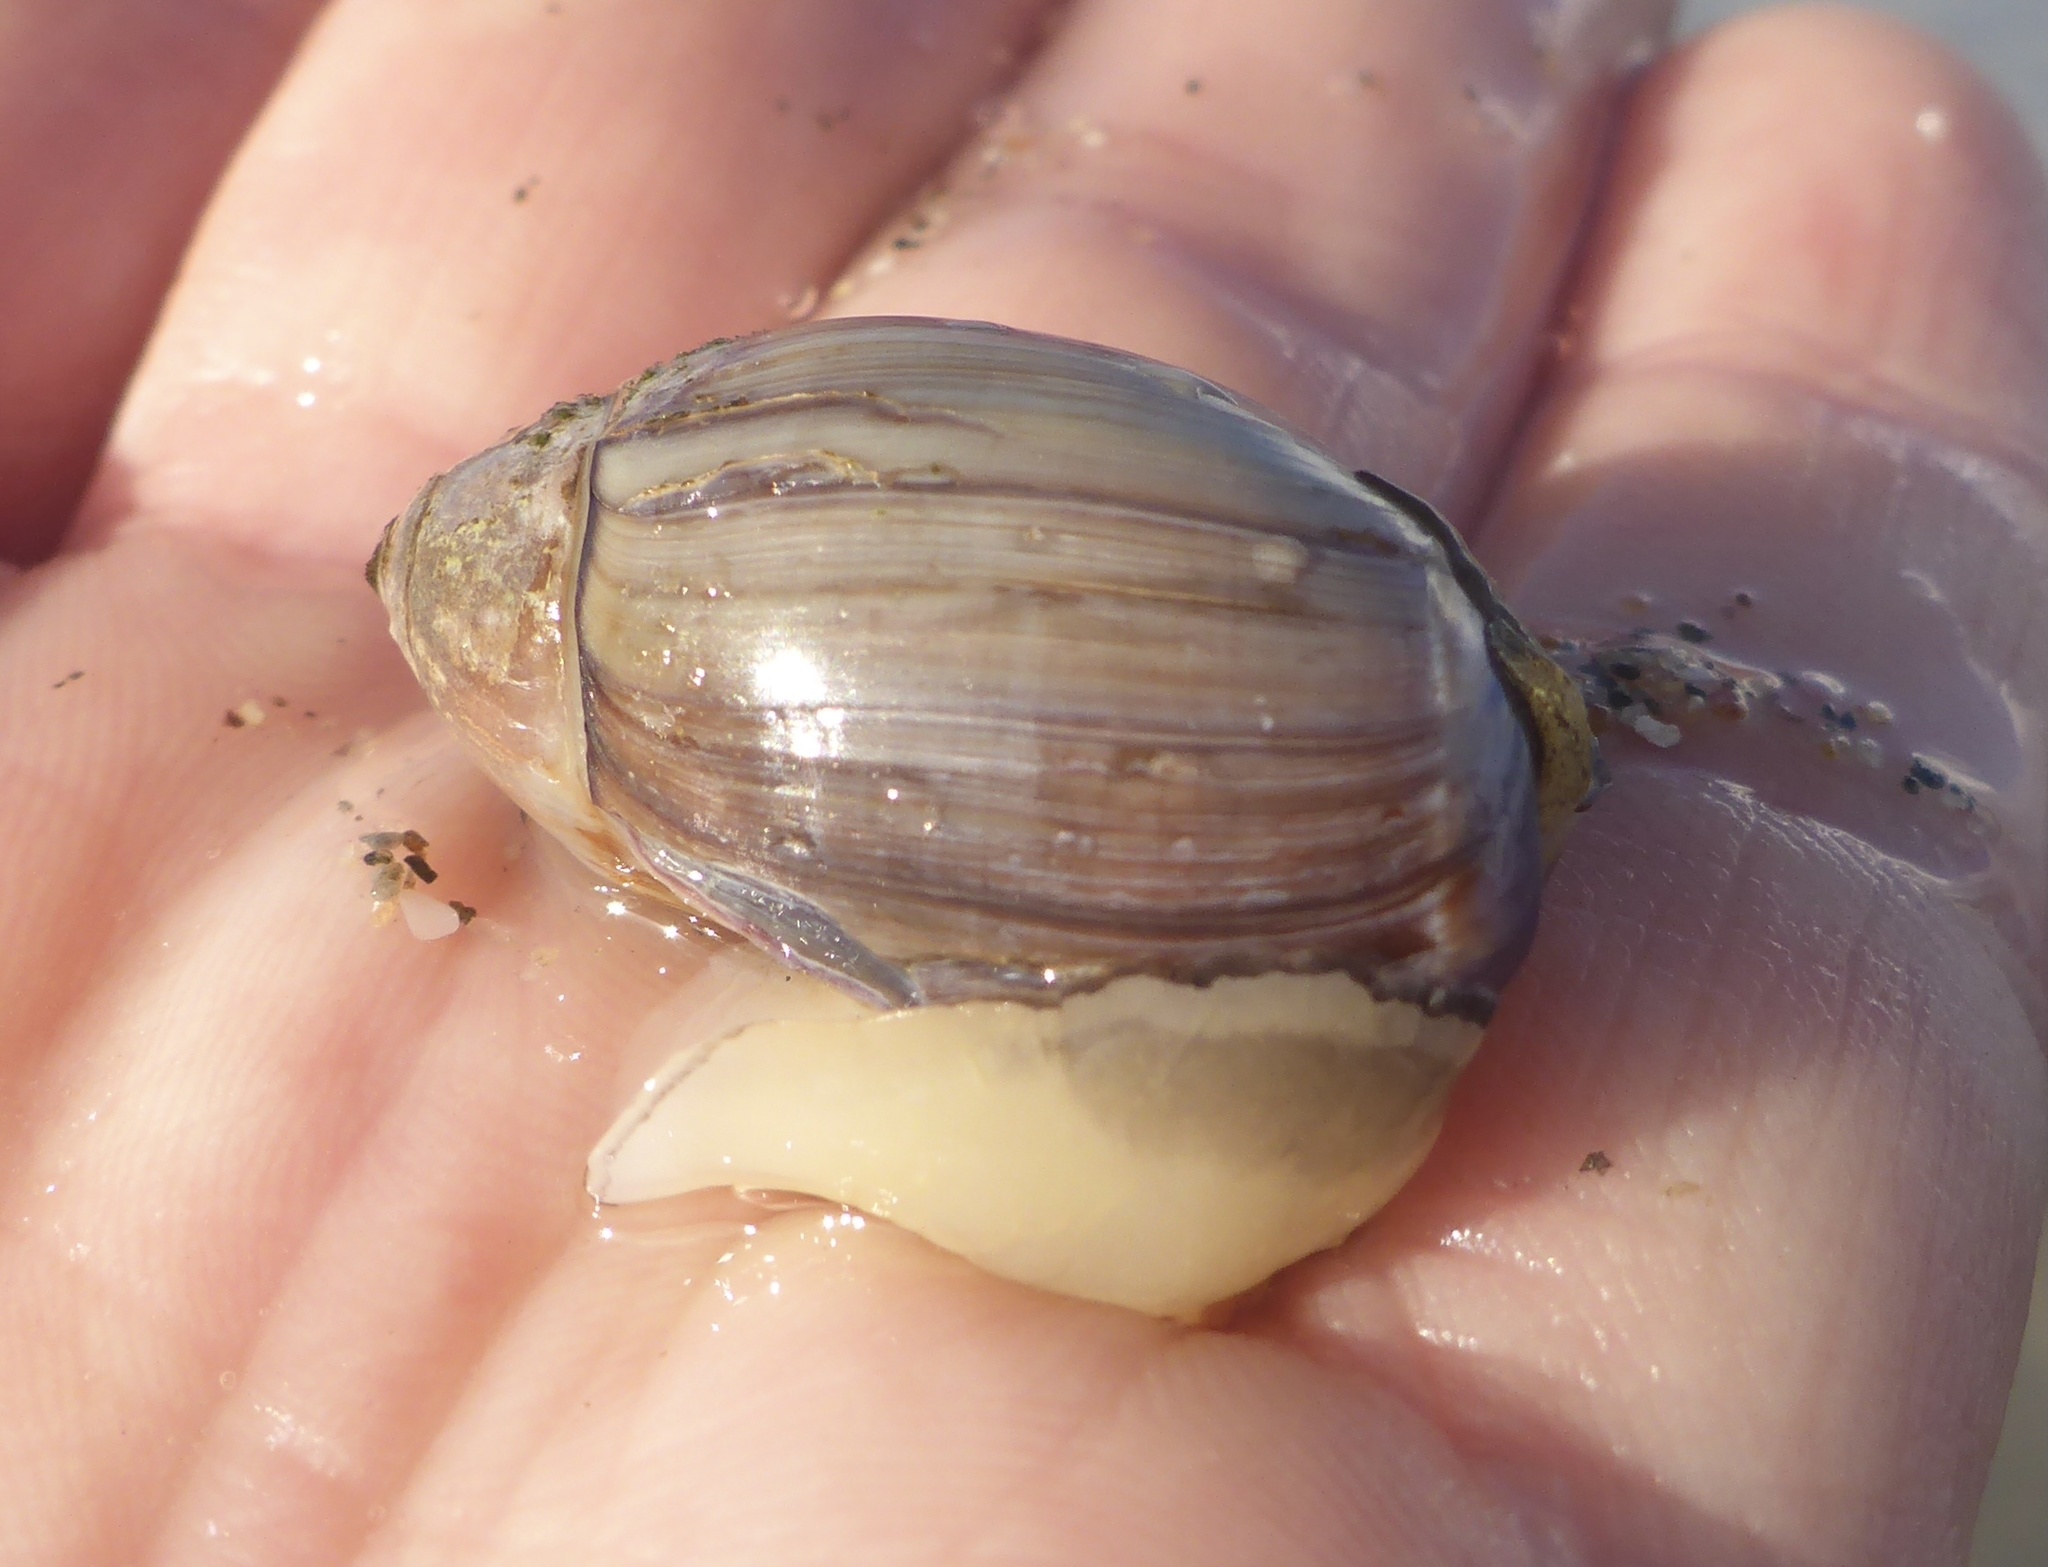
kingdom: Animalia
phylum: Mollusca
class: Gastropoda
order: Neogastropoda
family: Olividae
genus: Callianax
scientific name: Callianax biplicata
